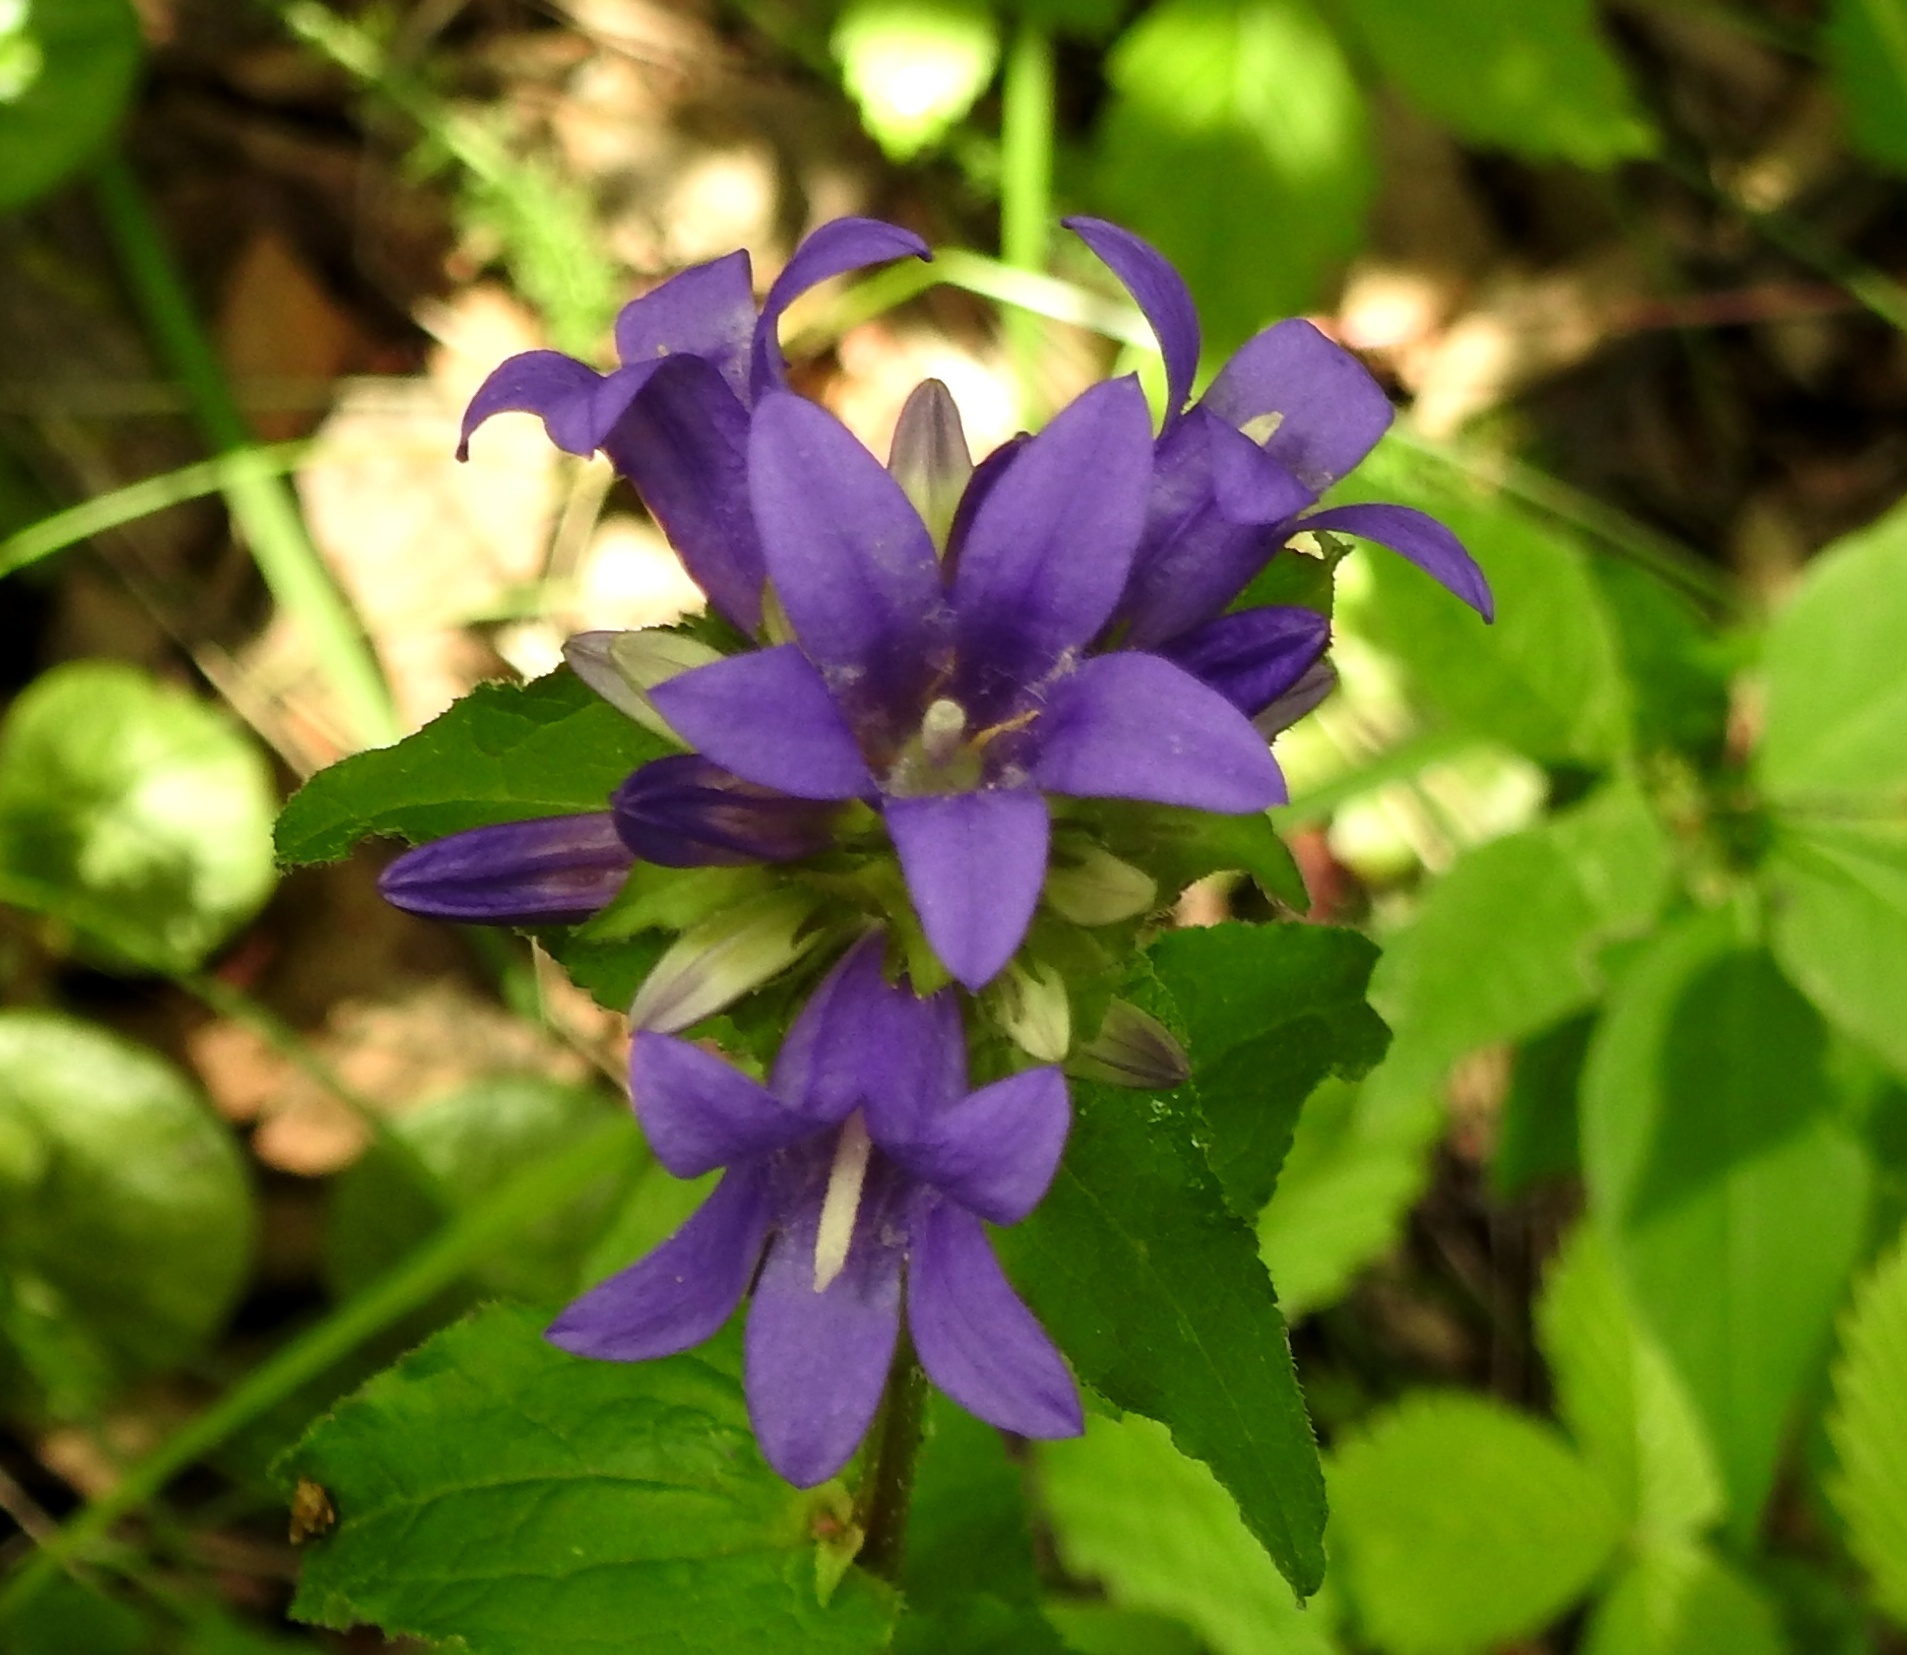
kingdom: Plantae
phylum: Tracheophyta
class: Magnoliopsida
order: Asterales
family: Campanulaceae
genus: Campanula
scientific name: Campanula glomerata
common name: Clustered bellflower
